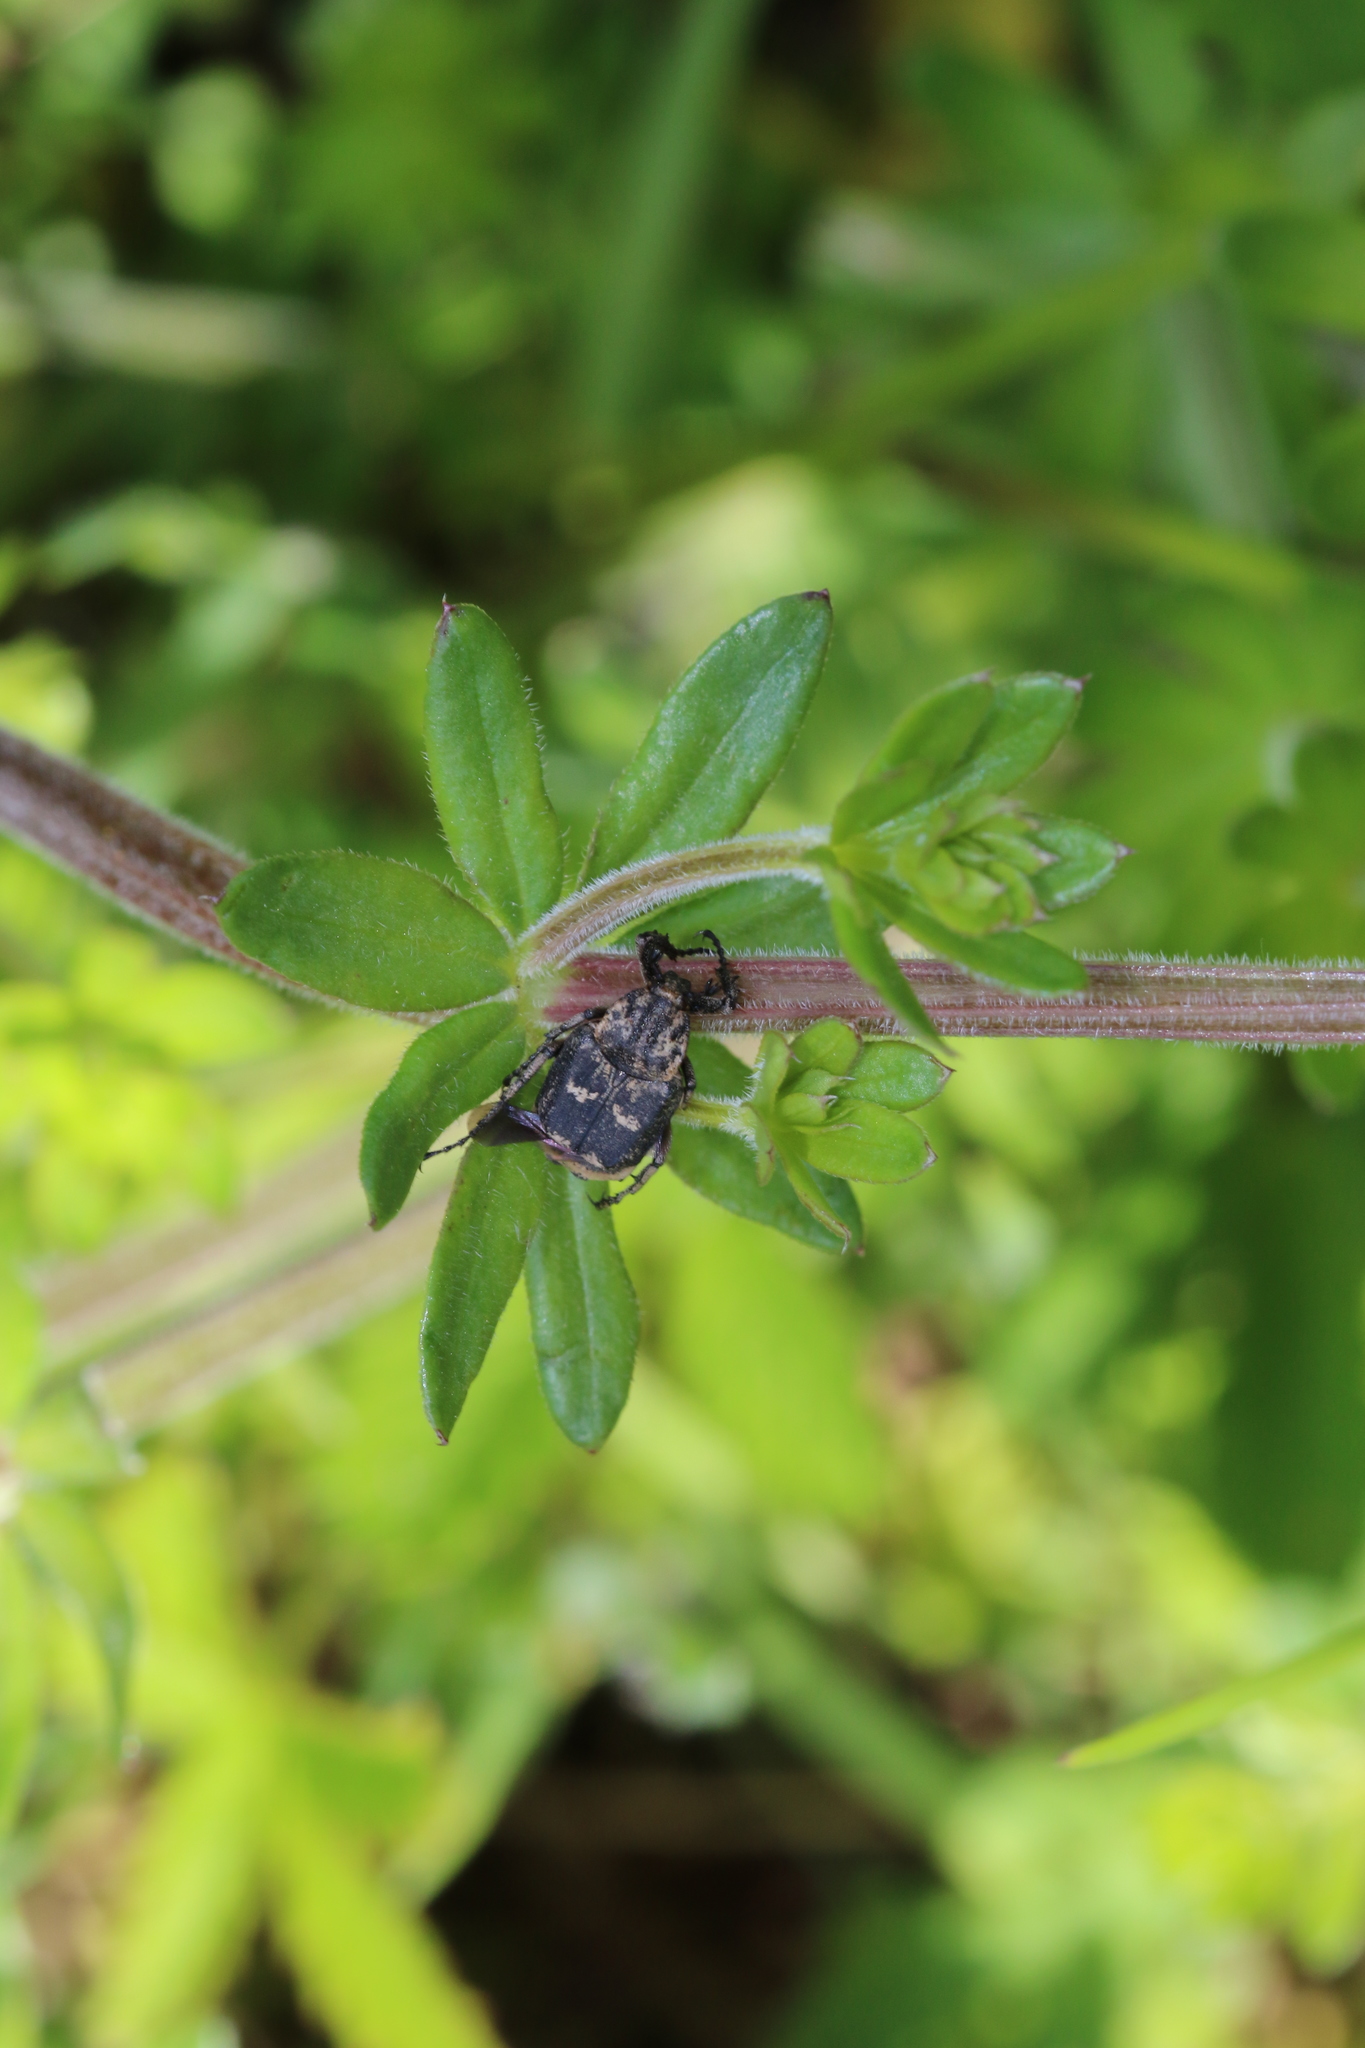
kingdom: Animalia
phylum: Arthropoda
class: Insecta
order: Coleoptera
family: Scarabaeidae
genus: Valgus
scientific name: Valgus hemipterus
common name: Bug flower chafer
